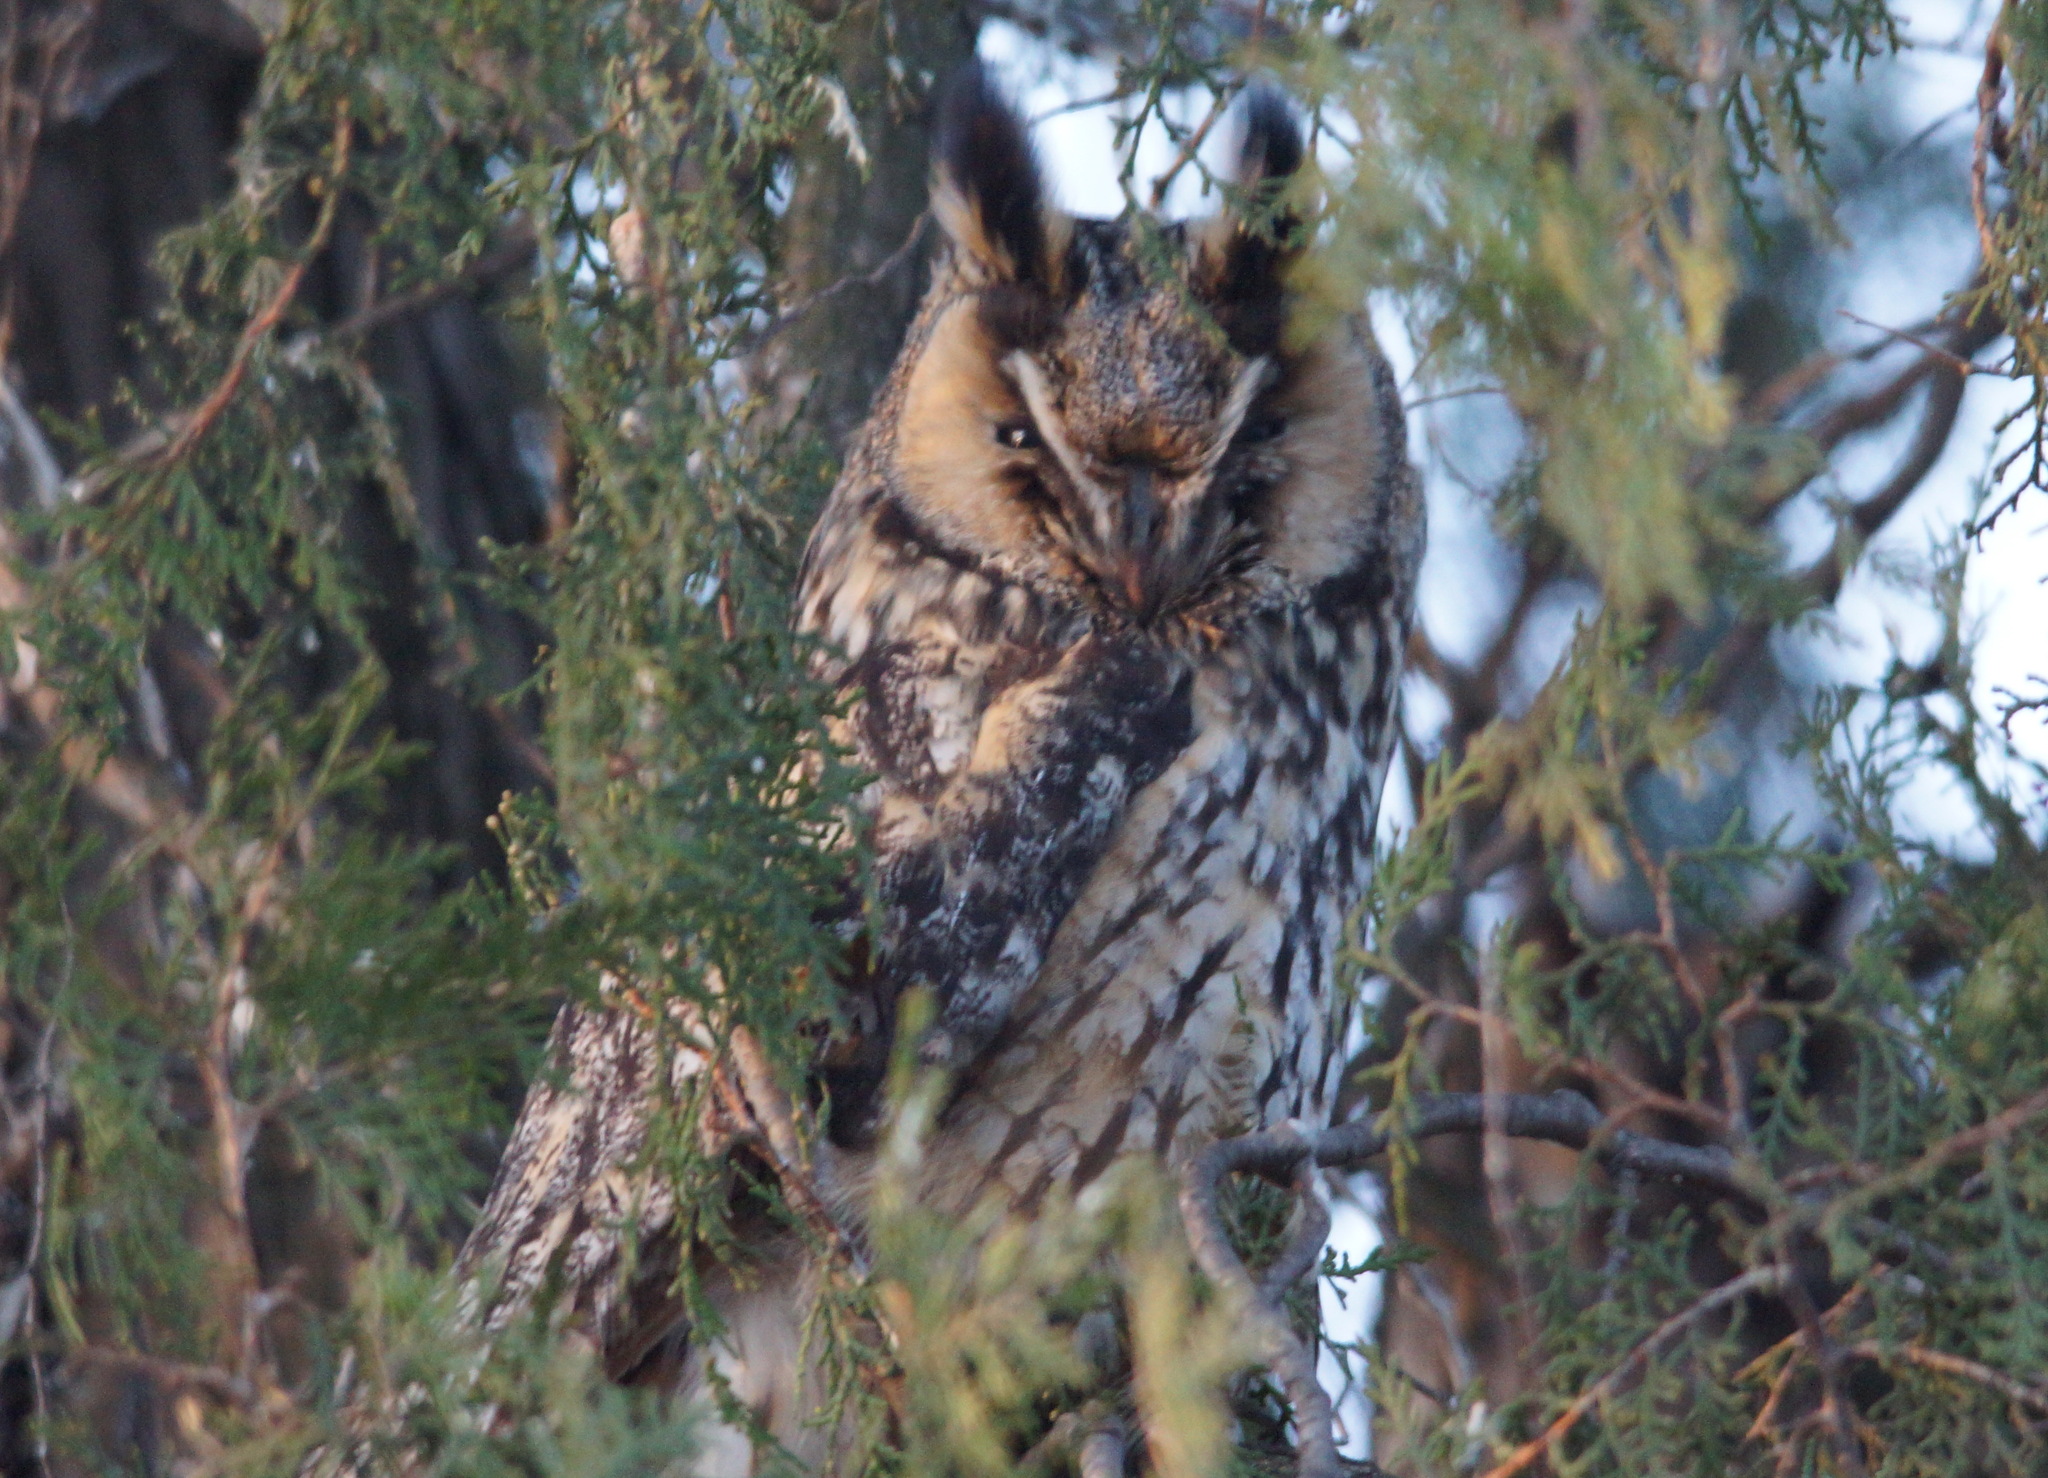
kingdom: Animalia
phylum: Chordata
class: Aves
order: Strigiformes
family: Strigidae
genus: Asio
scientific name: Asio otus
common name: Long-eared owl
